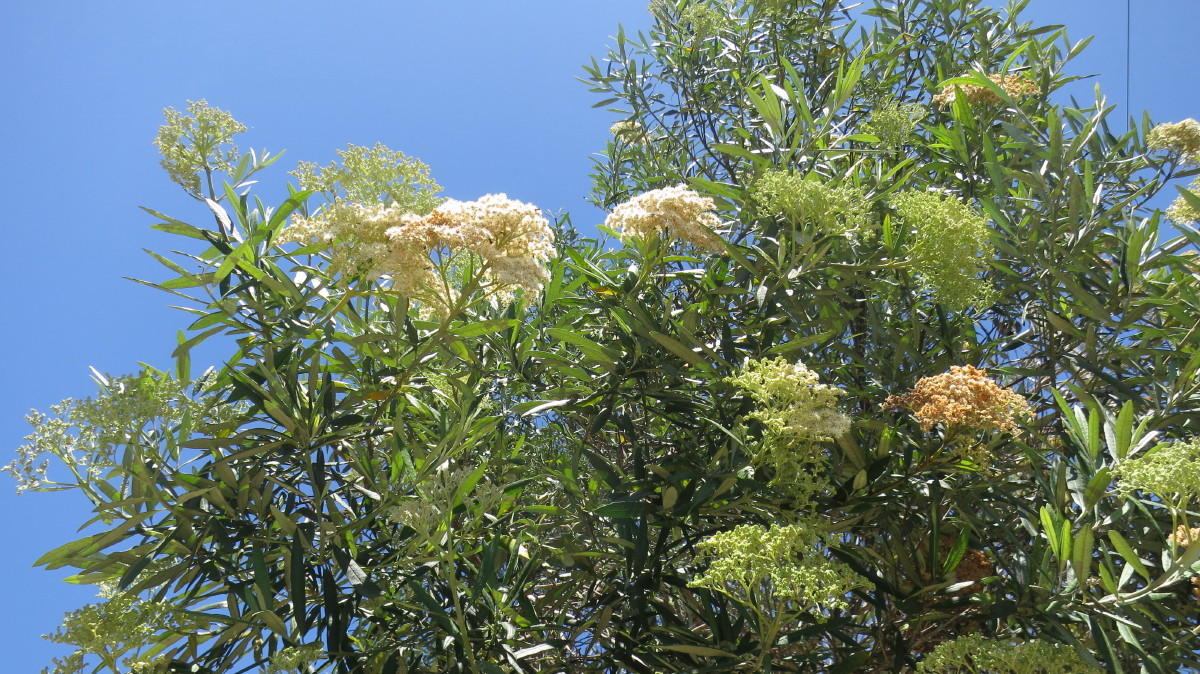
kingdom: Plantae
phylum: Tracheophyta
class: Magnoliopsida
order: Lamiales
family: Scrophulariaceae
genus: Buddleja
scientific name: Buddleja saligna
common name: False olive
